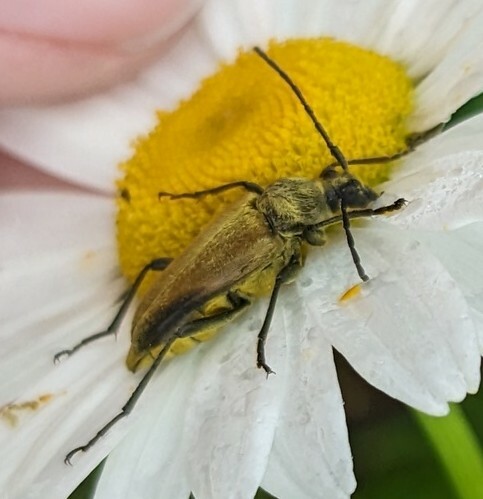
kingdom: Animalia
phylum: Arthropoda
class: Insecta
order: Coleoptera
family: Cerambycidae
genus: Cosmosalia
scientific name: Cosmosalia chrysocoma
